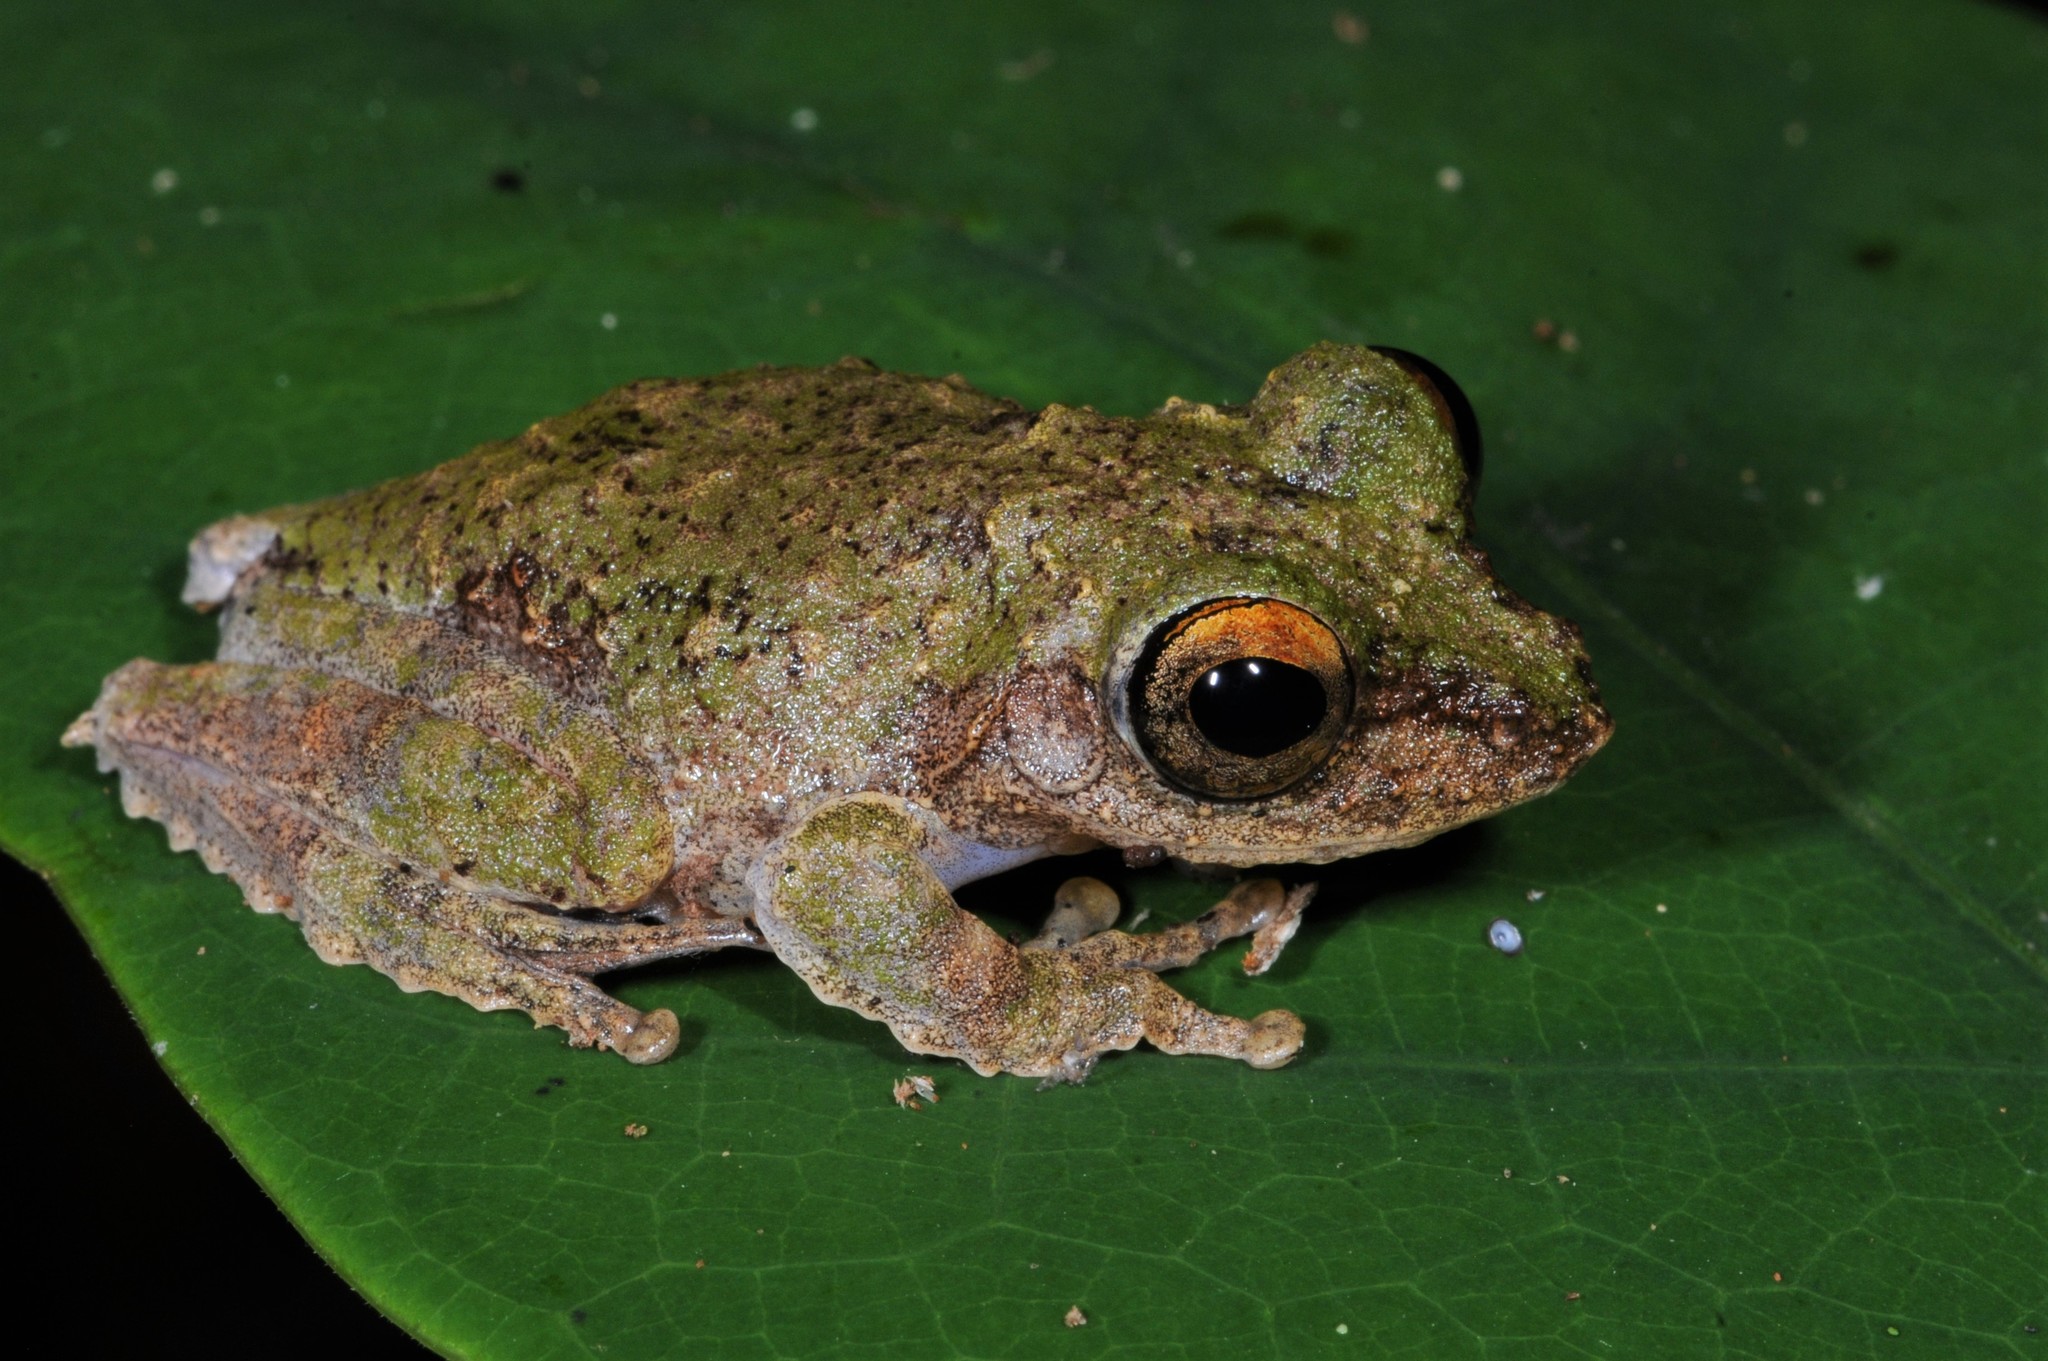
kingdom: Animalia
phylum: Chordata
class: Amphibia
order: Anura
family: Rhacophoridae
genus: Kurixalus
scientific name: Kurixalus chaseni
